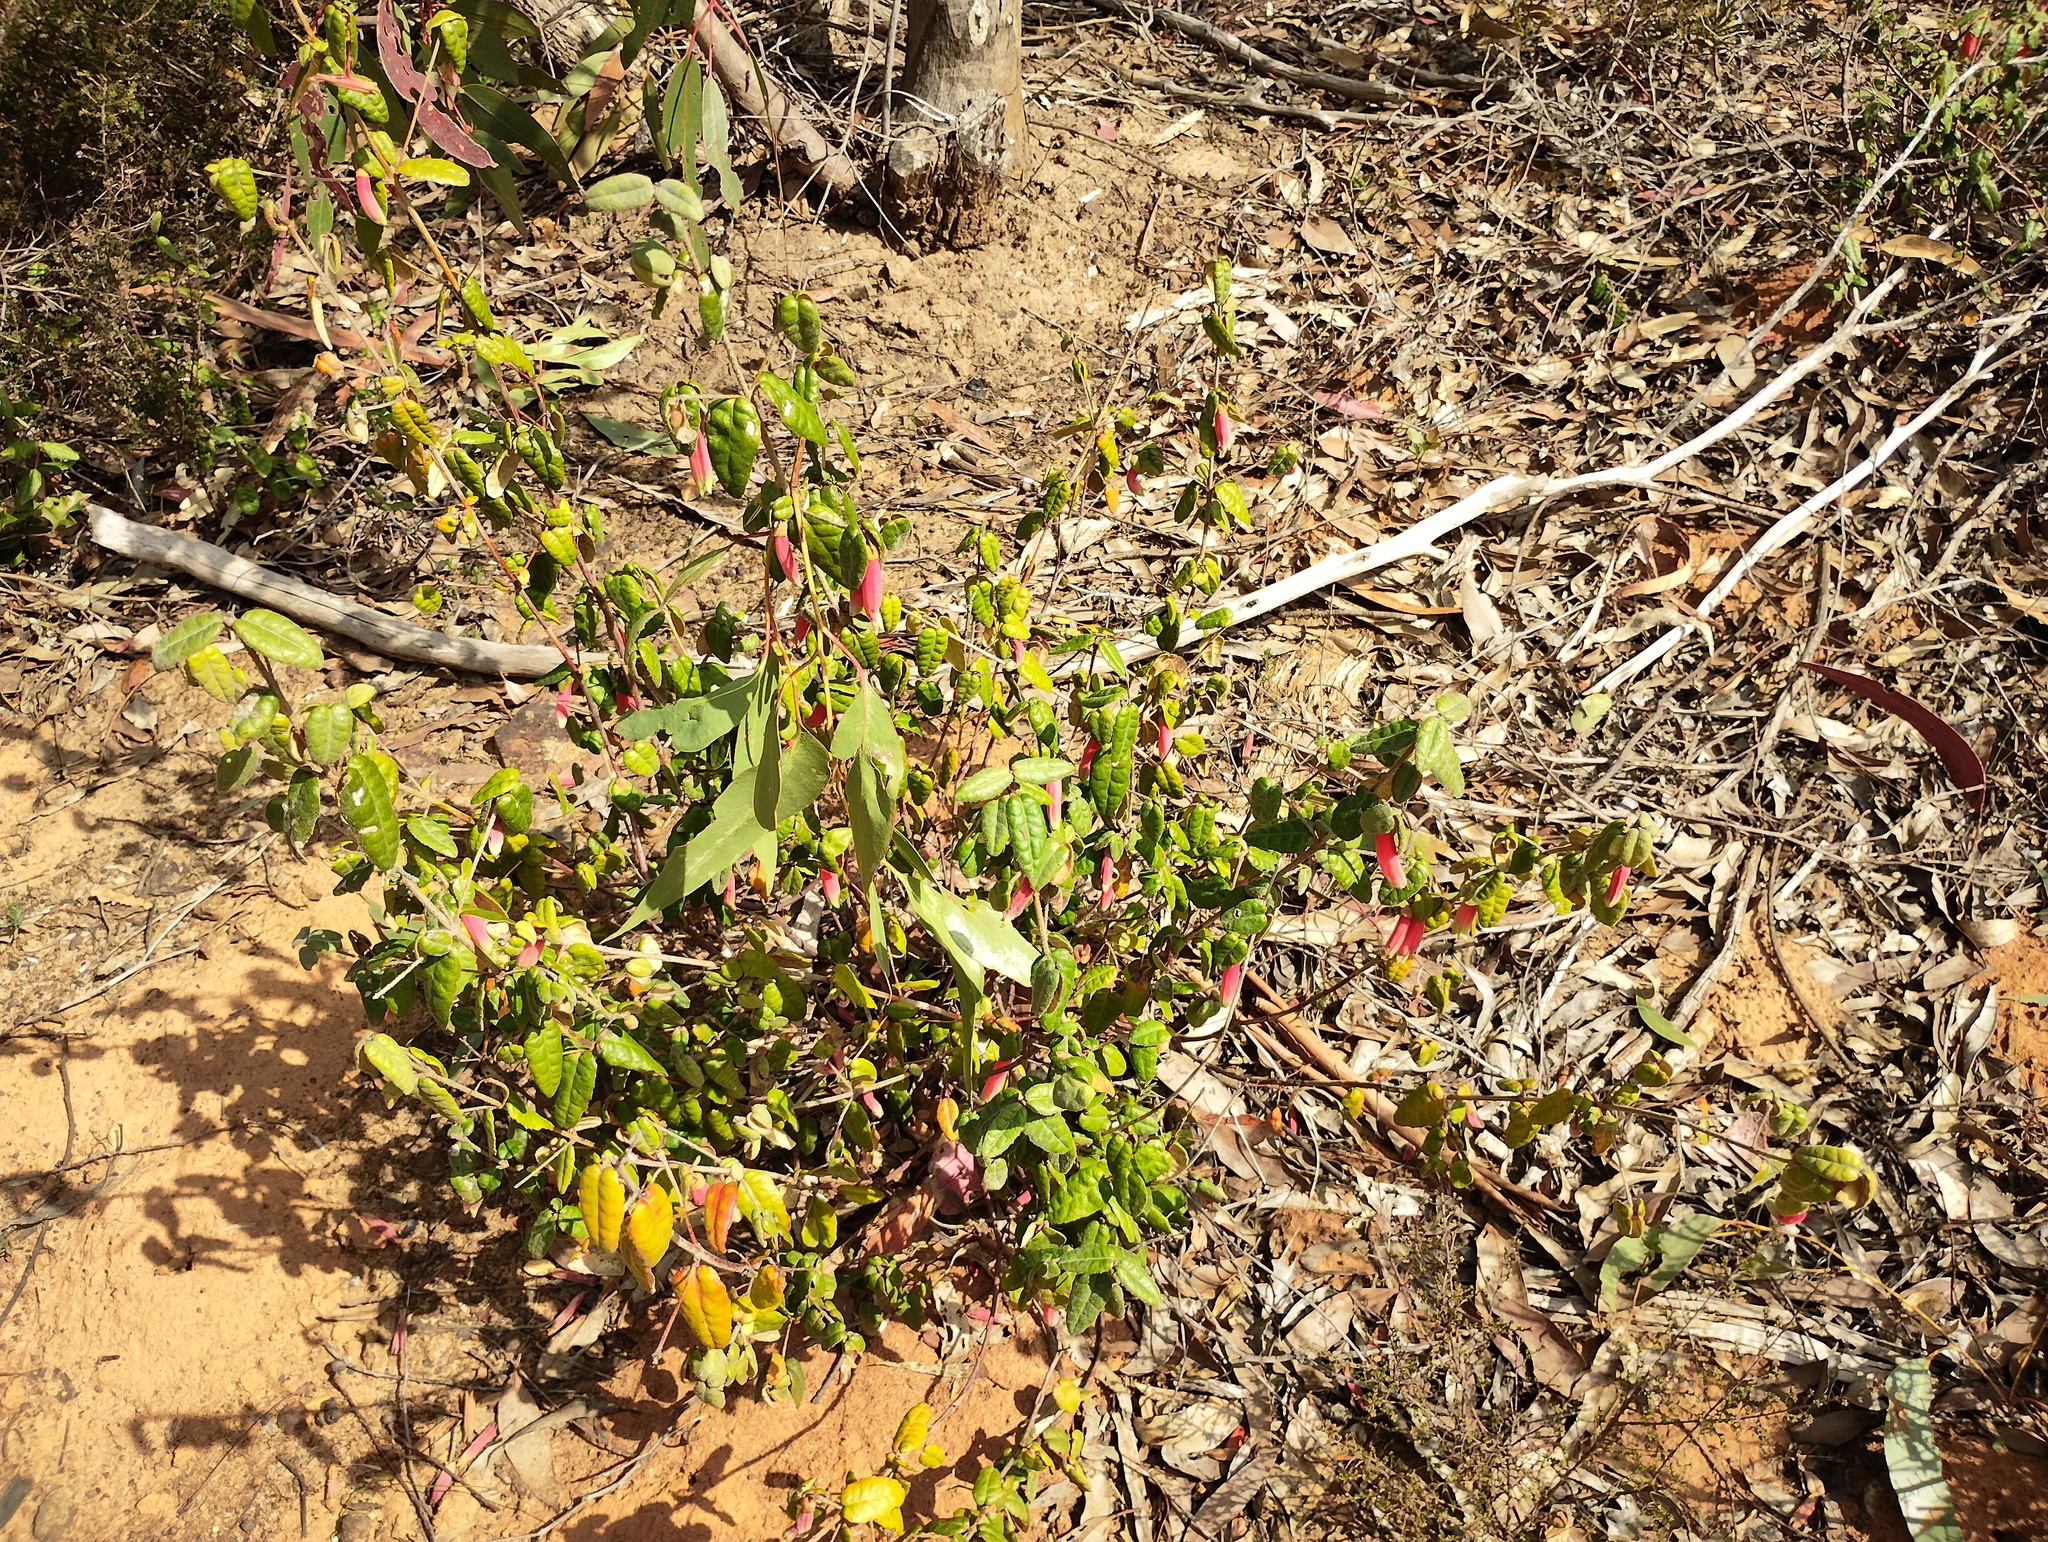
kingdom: Plantae
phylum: Tracheophyta
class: Magnoliopsida
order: Sapindales
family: Rutaceae
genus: Correa
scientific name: Correa reflexa
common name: Common correa
